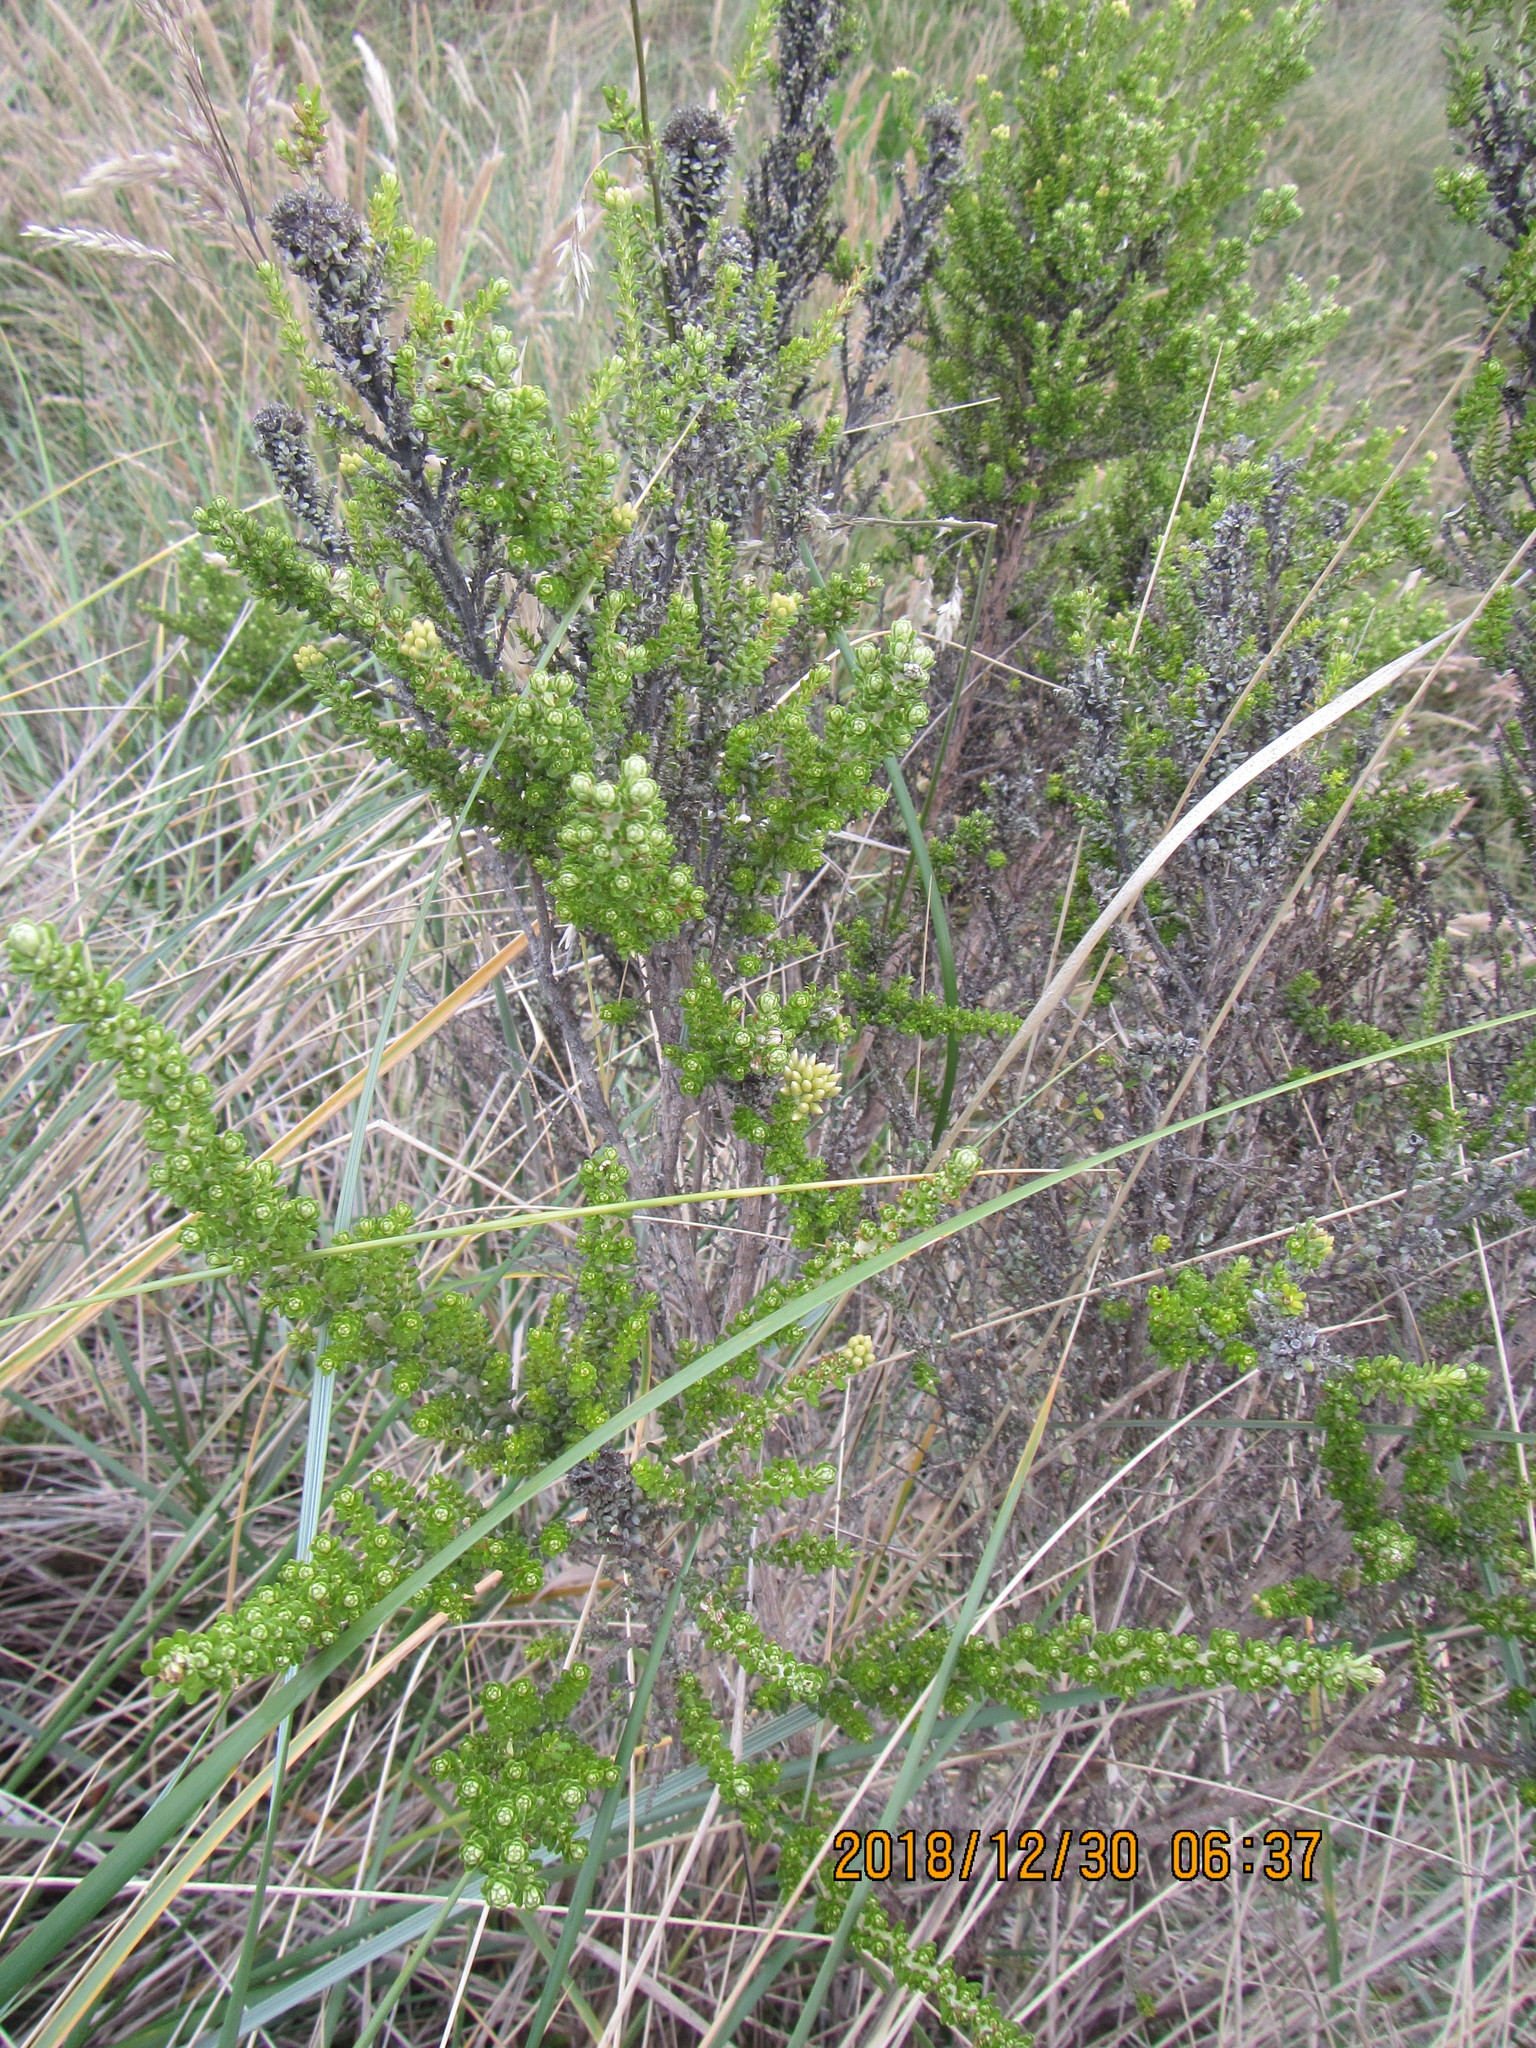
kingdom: Plantae
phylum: Tracheophyta
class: Magnoliopsida
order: Asterales
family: Asteraceae
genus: Ozothamnus
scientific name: Ozothamnus leptophyllus
